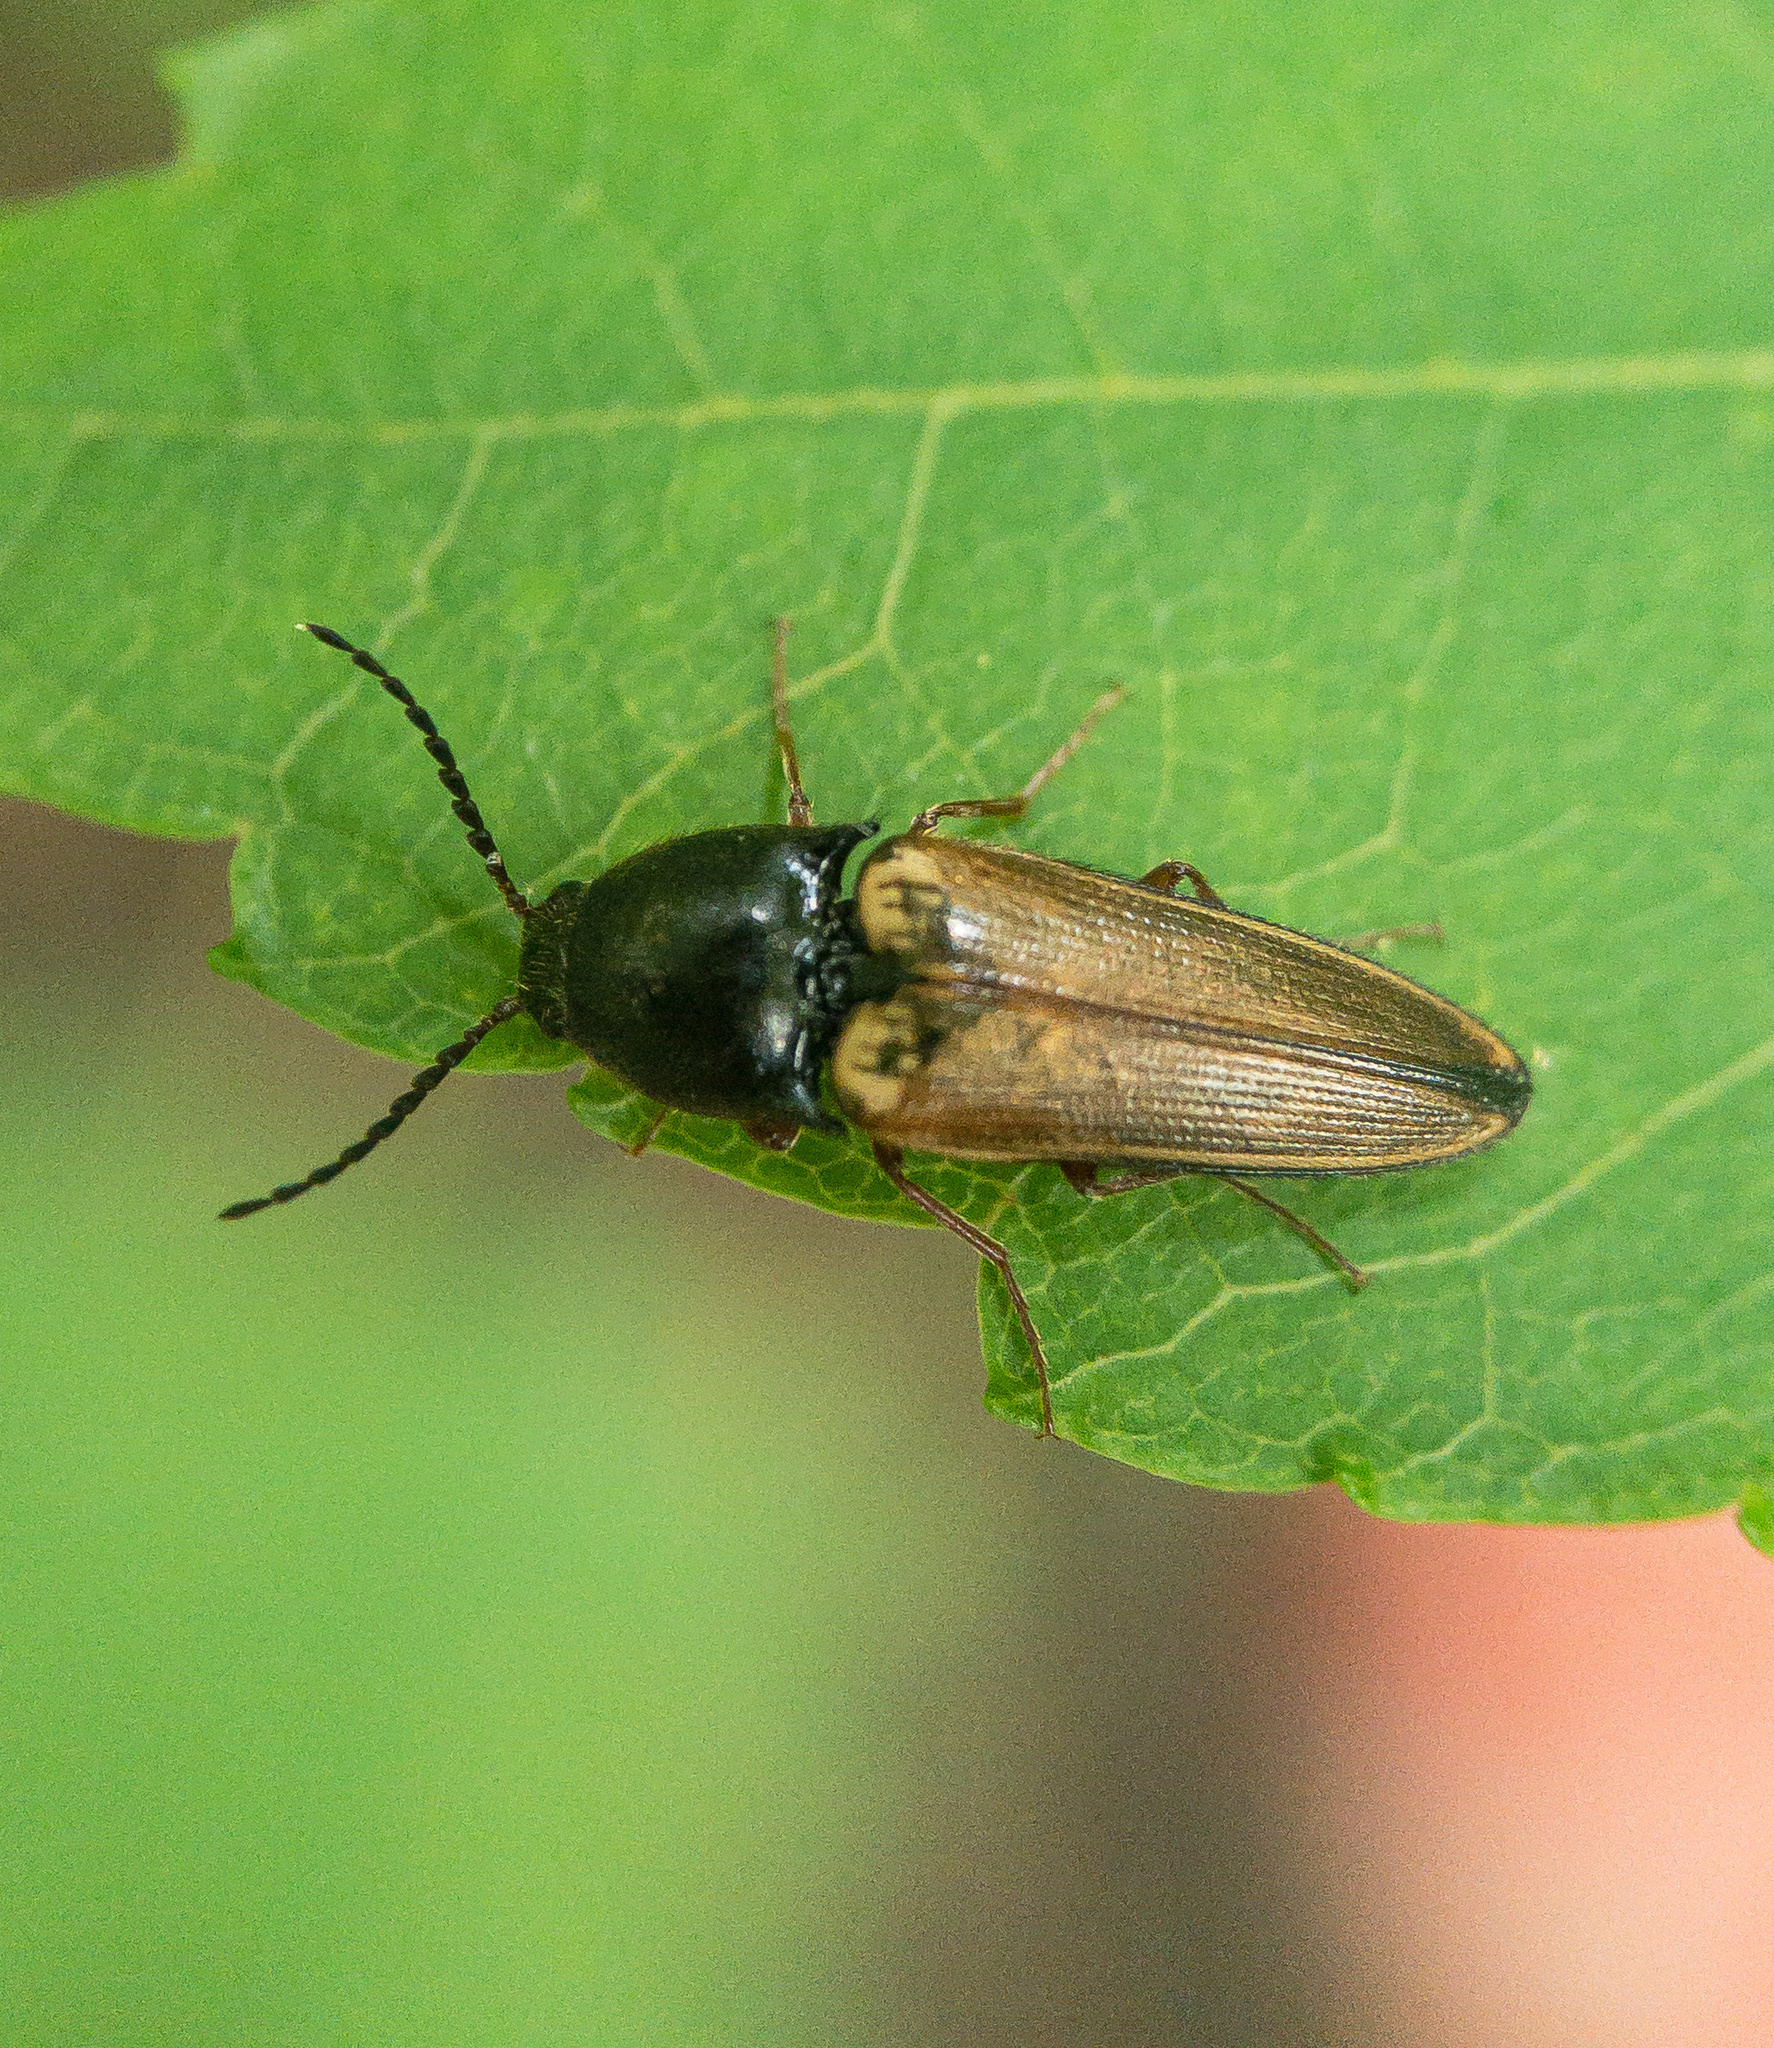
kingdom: Animalia
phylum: Arthropoda
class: Insecta
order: Coleoptera
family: Elateridae
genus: Ampedus
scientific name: Ampedus nigricollis
